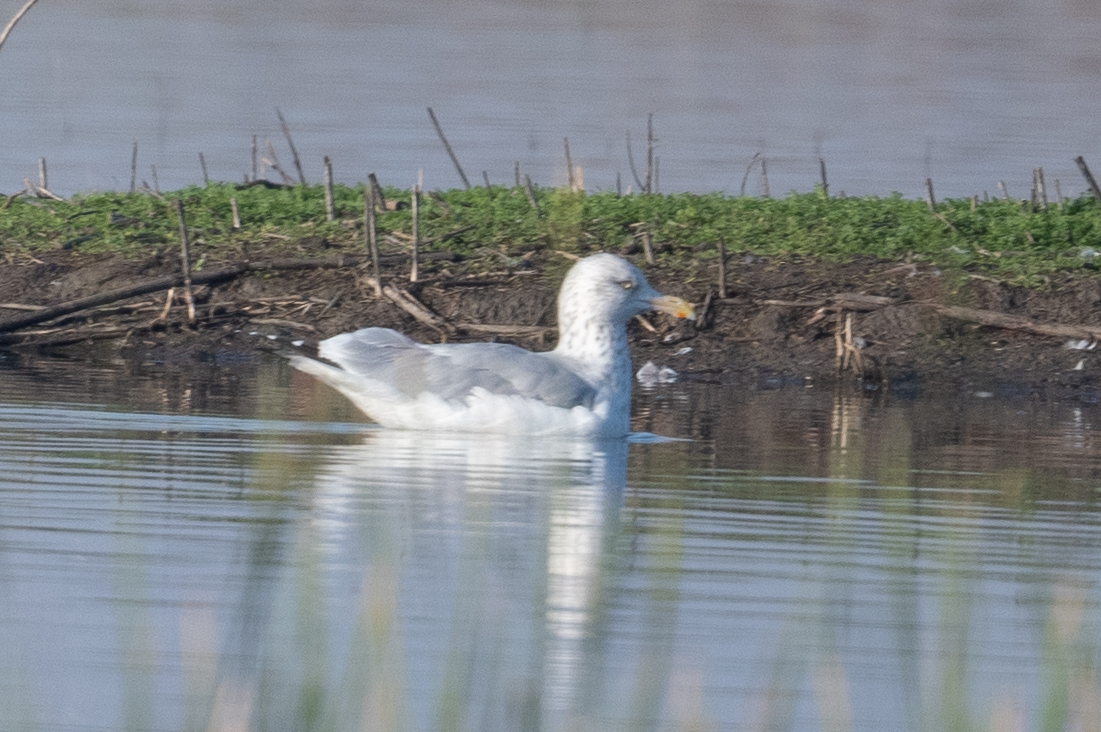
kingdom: Animalia
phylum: Chordata
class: Aves
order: Charadriiformes
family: Laridae
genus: Larus
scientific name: Larus argentatus
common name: Herring gull
